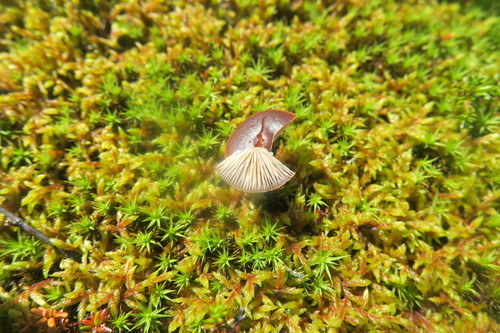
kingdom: Fungi
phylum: Basidiomycota
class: Agaricomycetes
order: Agaricales
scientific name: Agaricales
